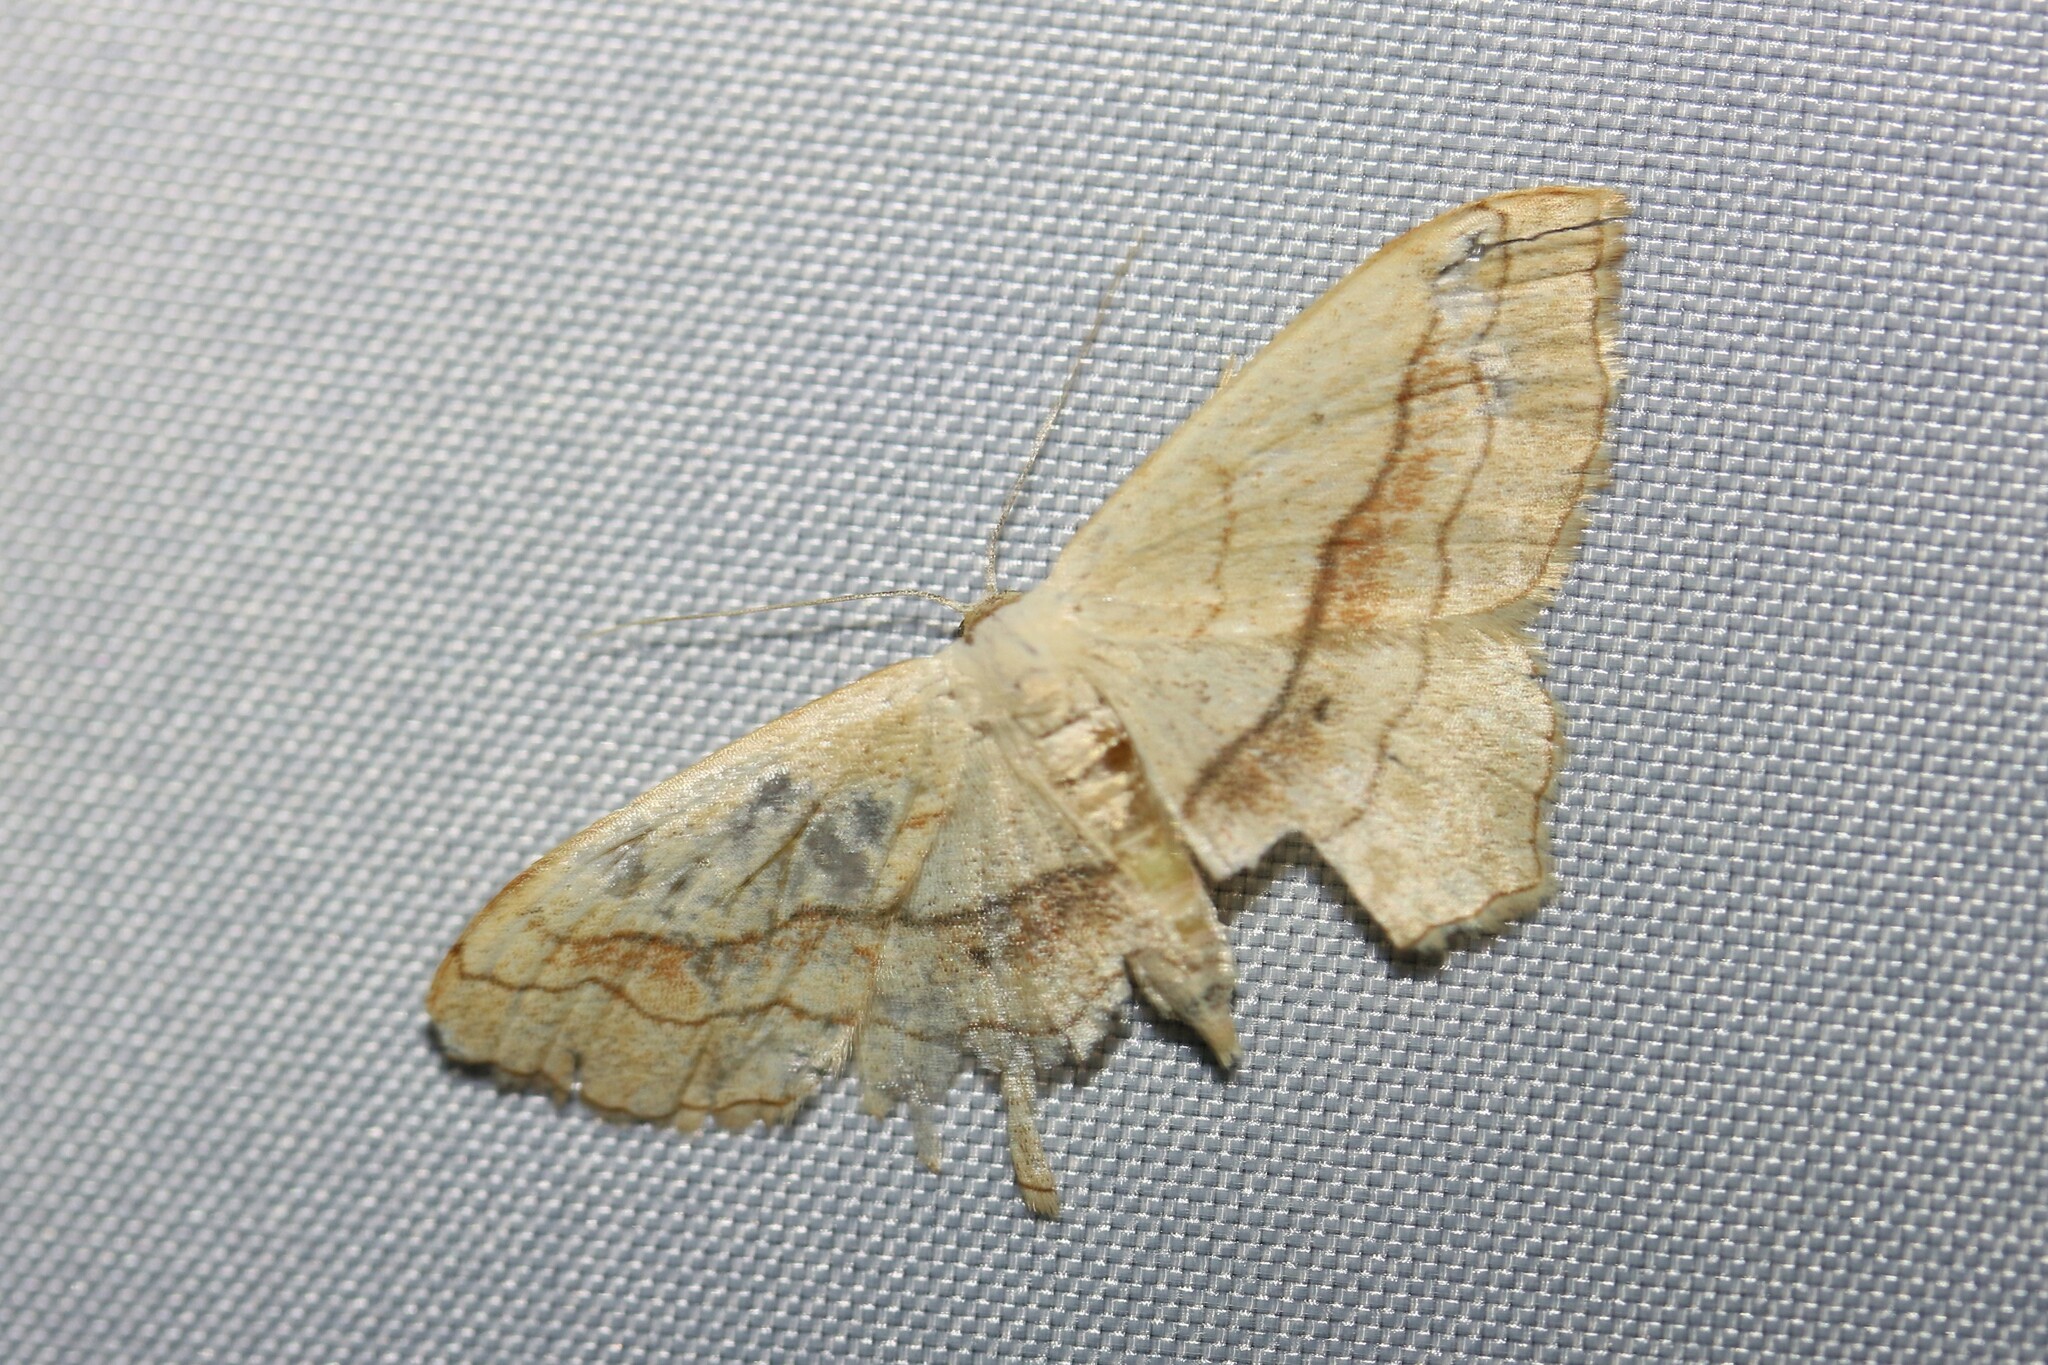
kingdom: Animalia
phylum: Arthropoda
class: Insecta
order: Lepidoptera
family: Geometridae
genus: Scopula
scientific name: Scopula imitaria
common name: Small blood-vein
